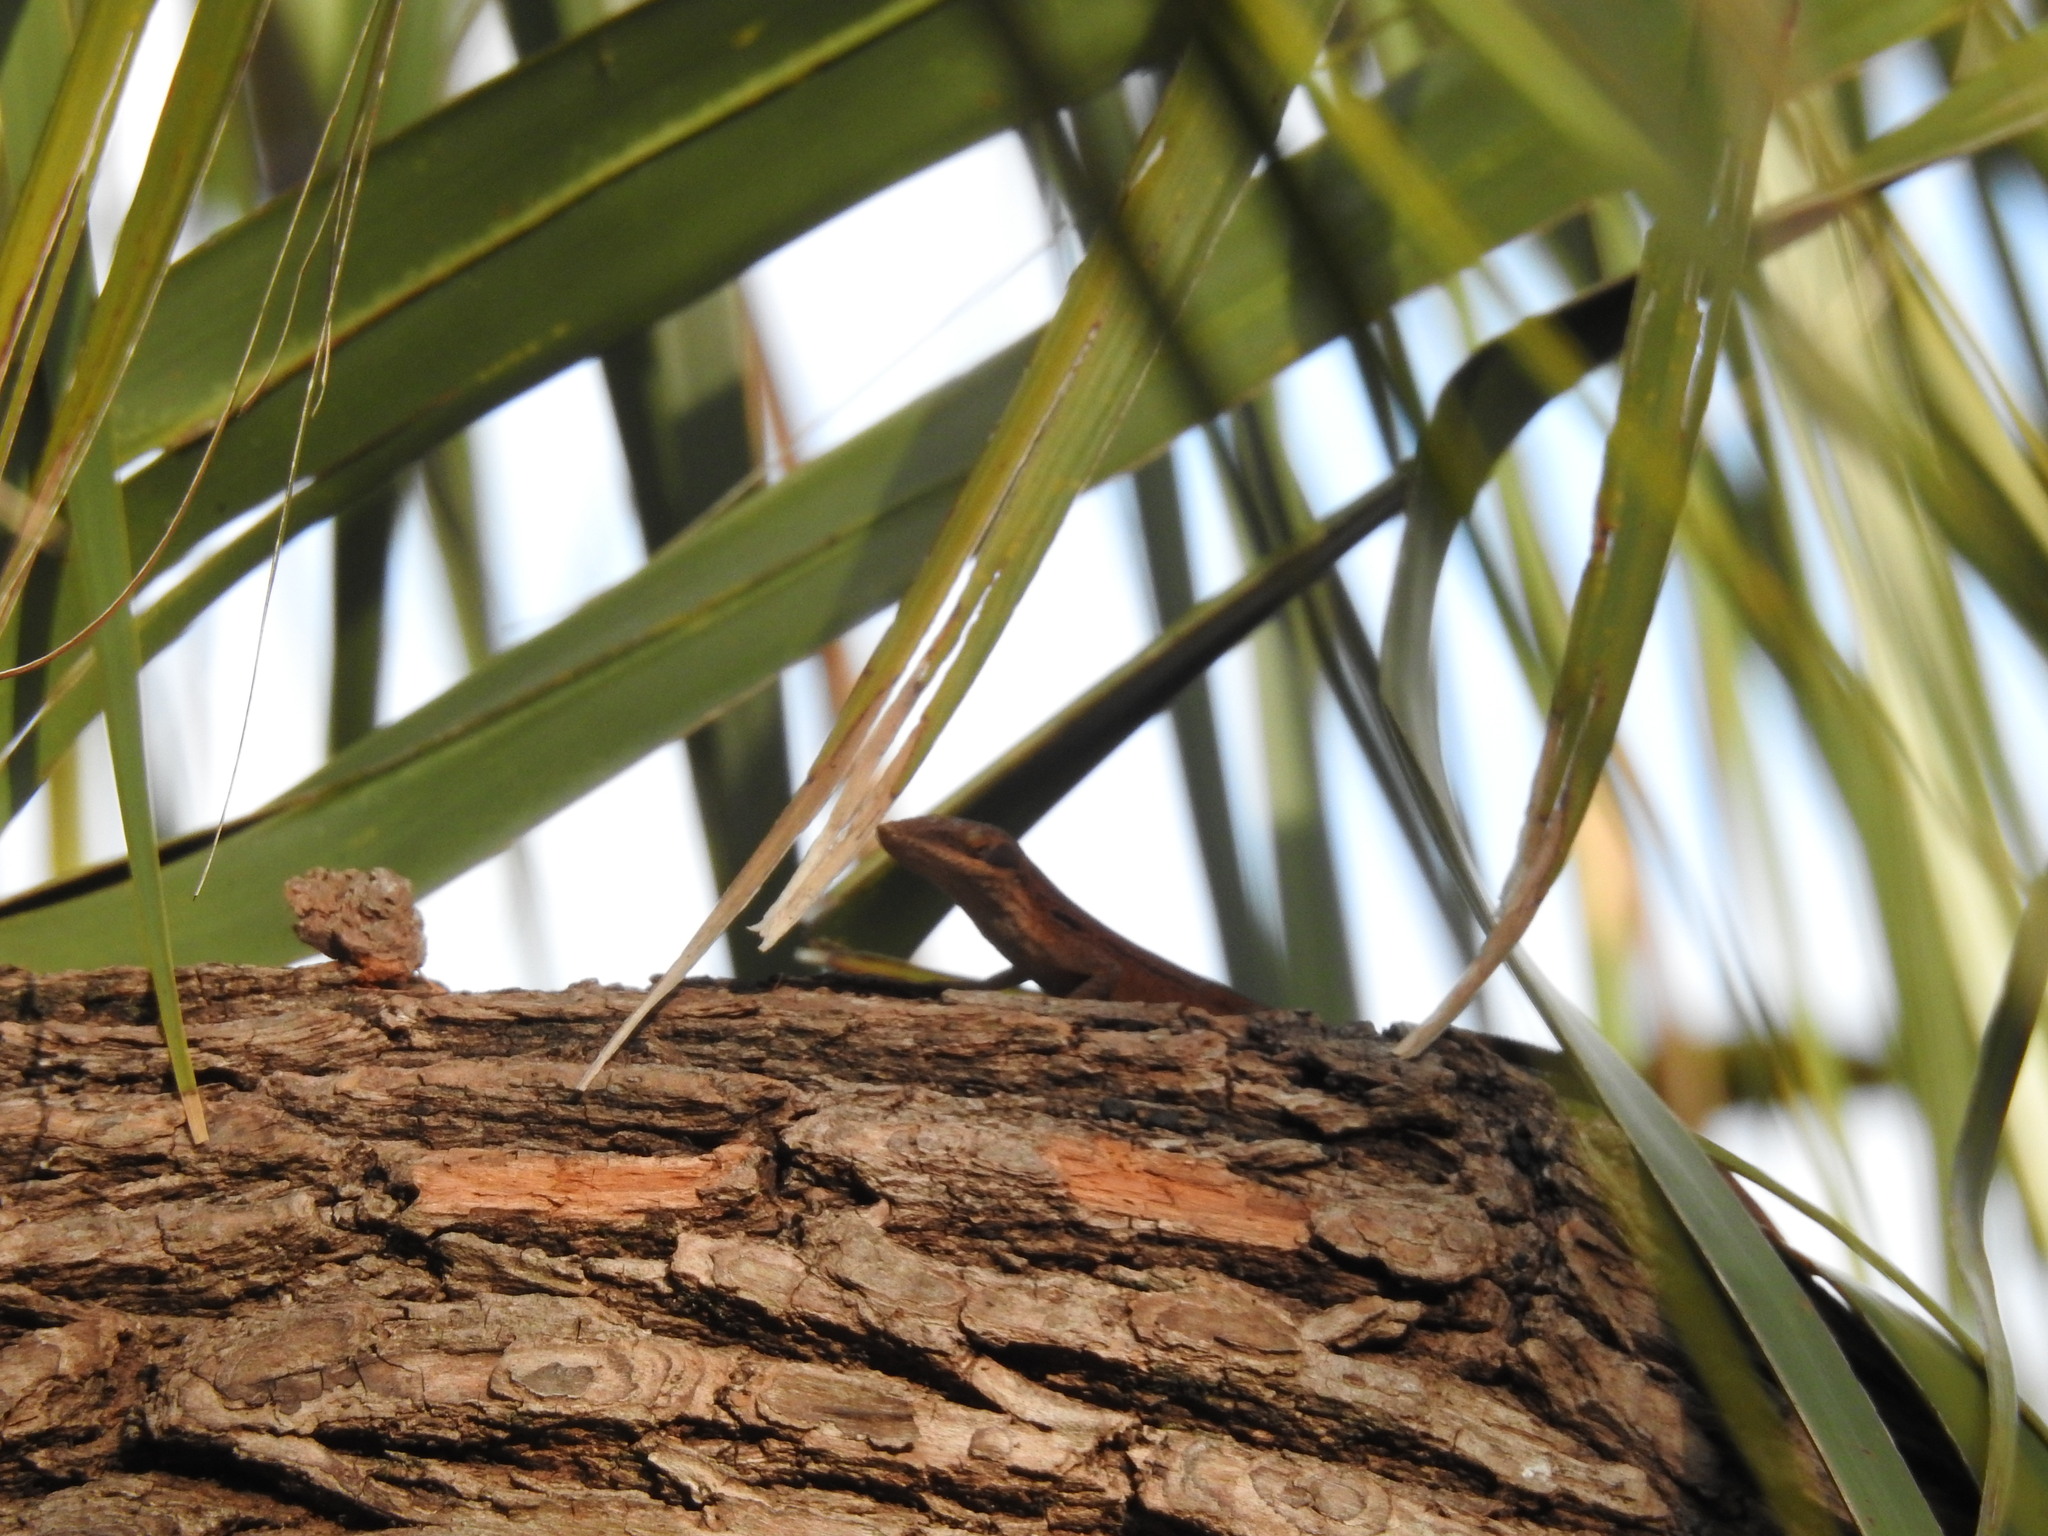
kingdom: Animalia
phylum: Chordata
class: Squamata
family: Dactyloidae
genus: Anolis
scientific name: Anolis carolinensis
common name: Green anole
